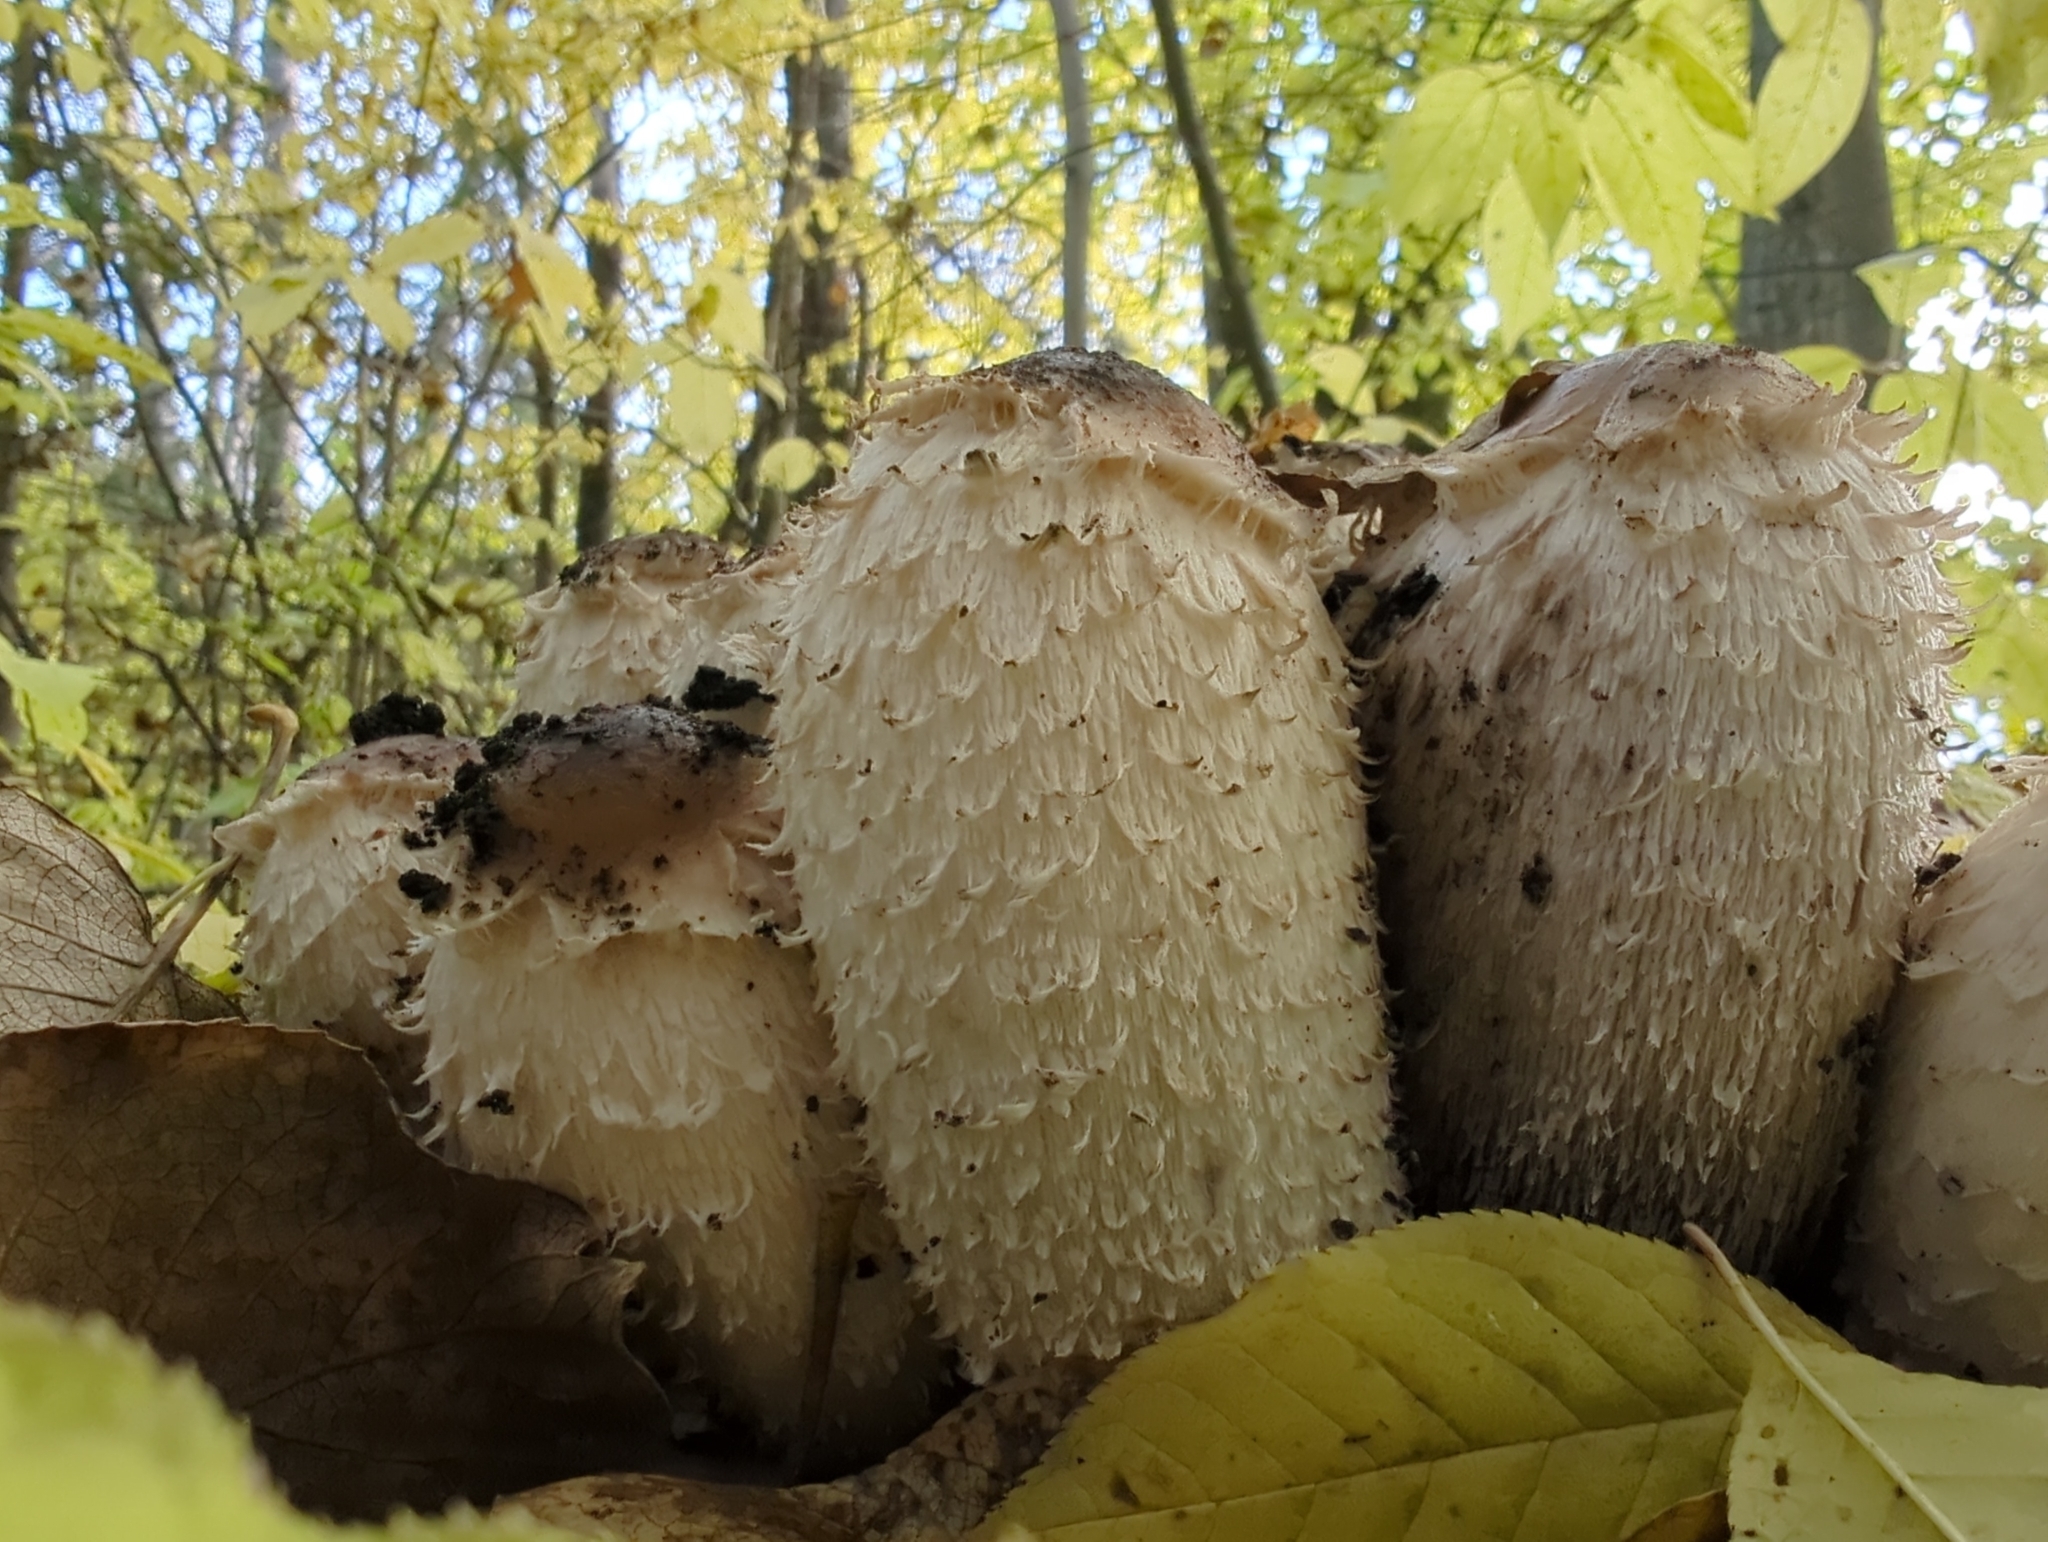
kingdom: Fungi
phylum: Basidiomycota
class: Agaricomycetes
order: Agaricales
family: Agaricaceae
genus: Coprinus
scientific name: Coprinus comatus
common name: Lawyer's wig
